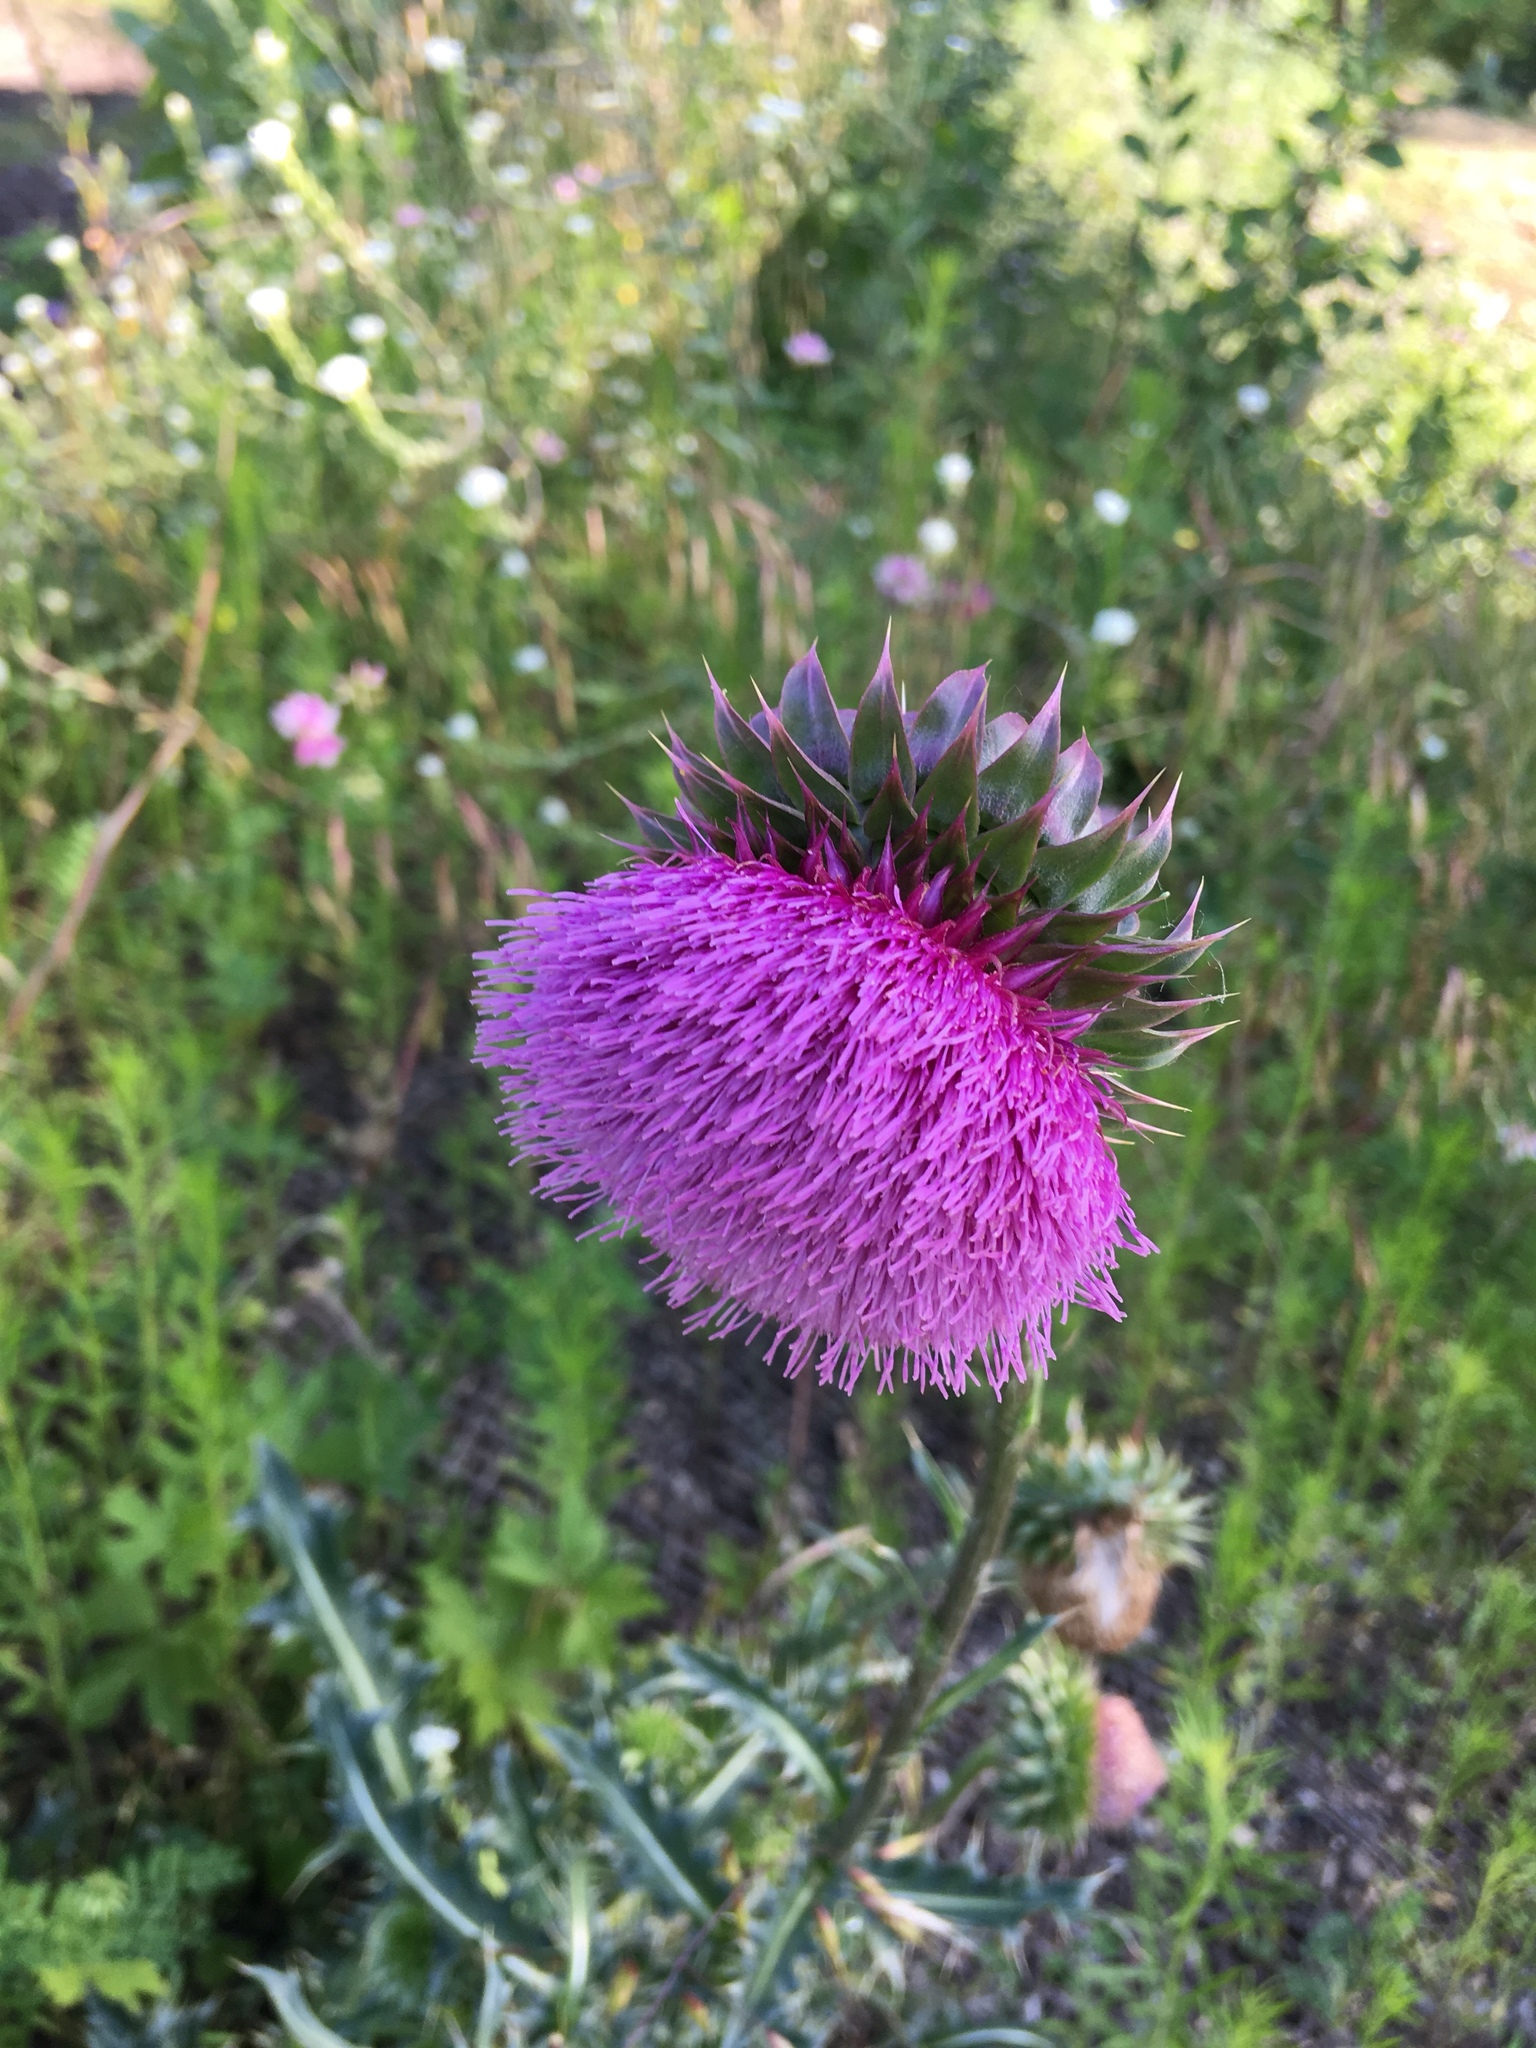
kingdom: Plantae
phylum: Tracheophyta
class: Magnoliopsida
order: Asterales
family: Asteraceae
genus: Carduus
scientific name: Carduus nutans
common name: Musk thistle
